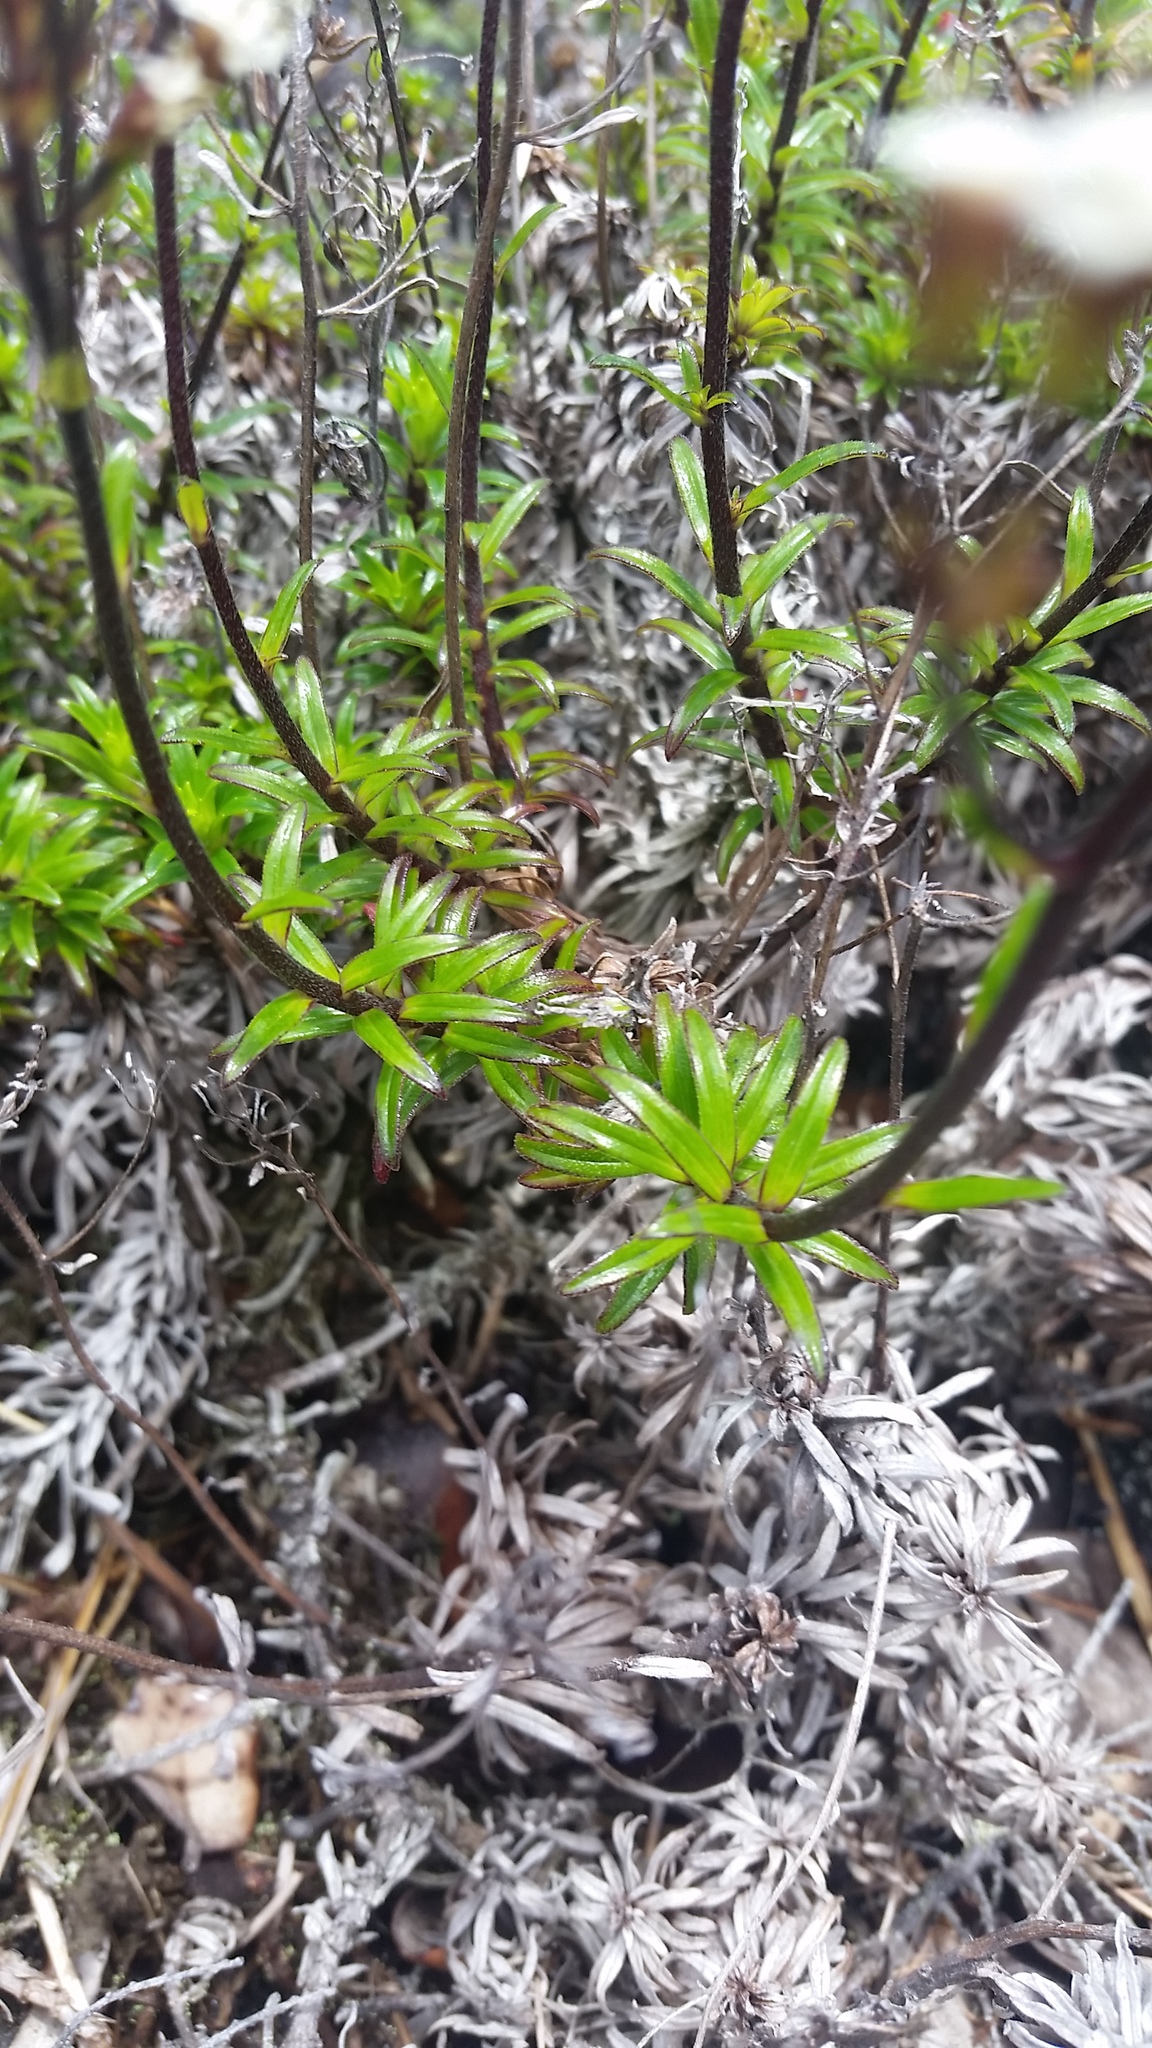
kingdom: Plantae
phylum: Tracheophyta
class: Magnoliopsida
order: Asterales
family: Asteraceae
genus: Dubautia
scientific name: Dubautia scabra
